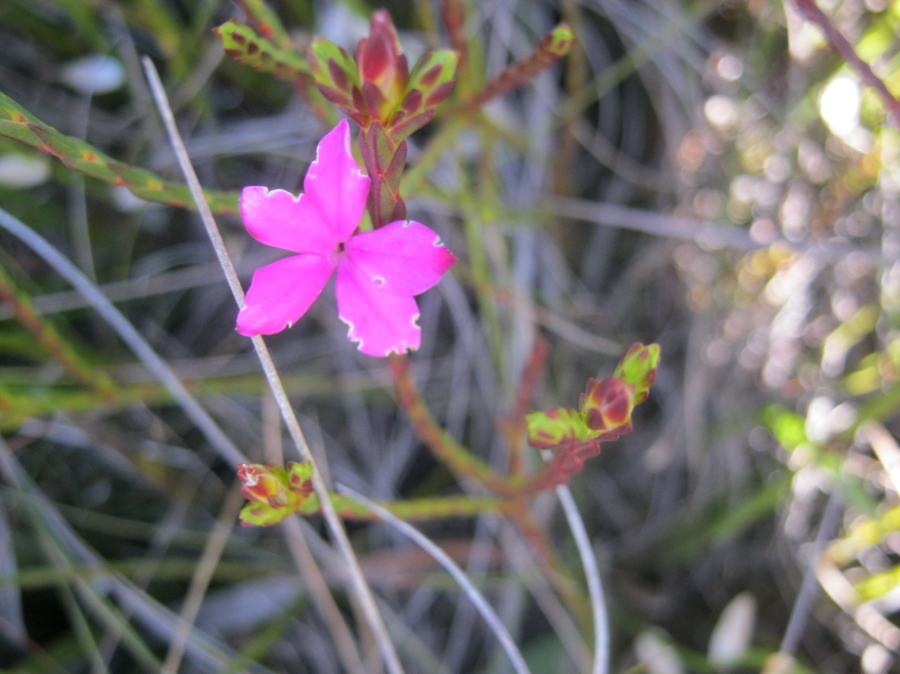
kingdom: Plantae
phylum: Tracheophyta
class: Magnoliopsida
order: Sapindales
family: Rutaceae
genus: Acmadenia
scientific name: Acmadenia trigona
